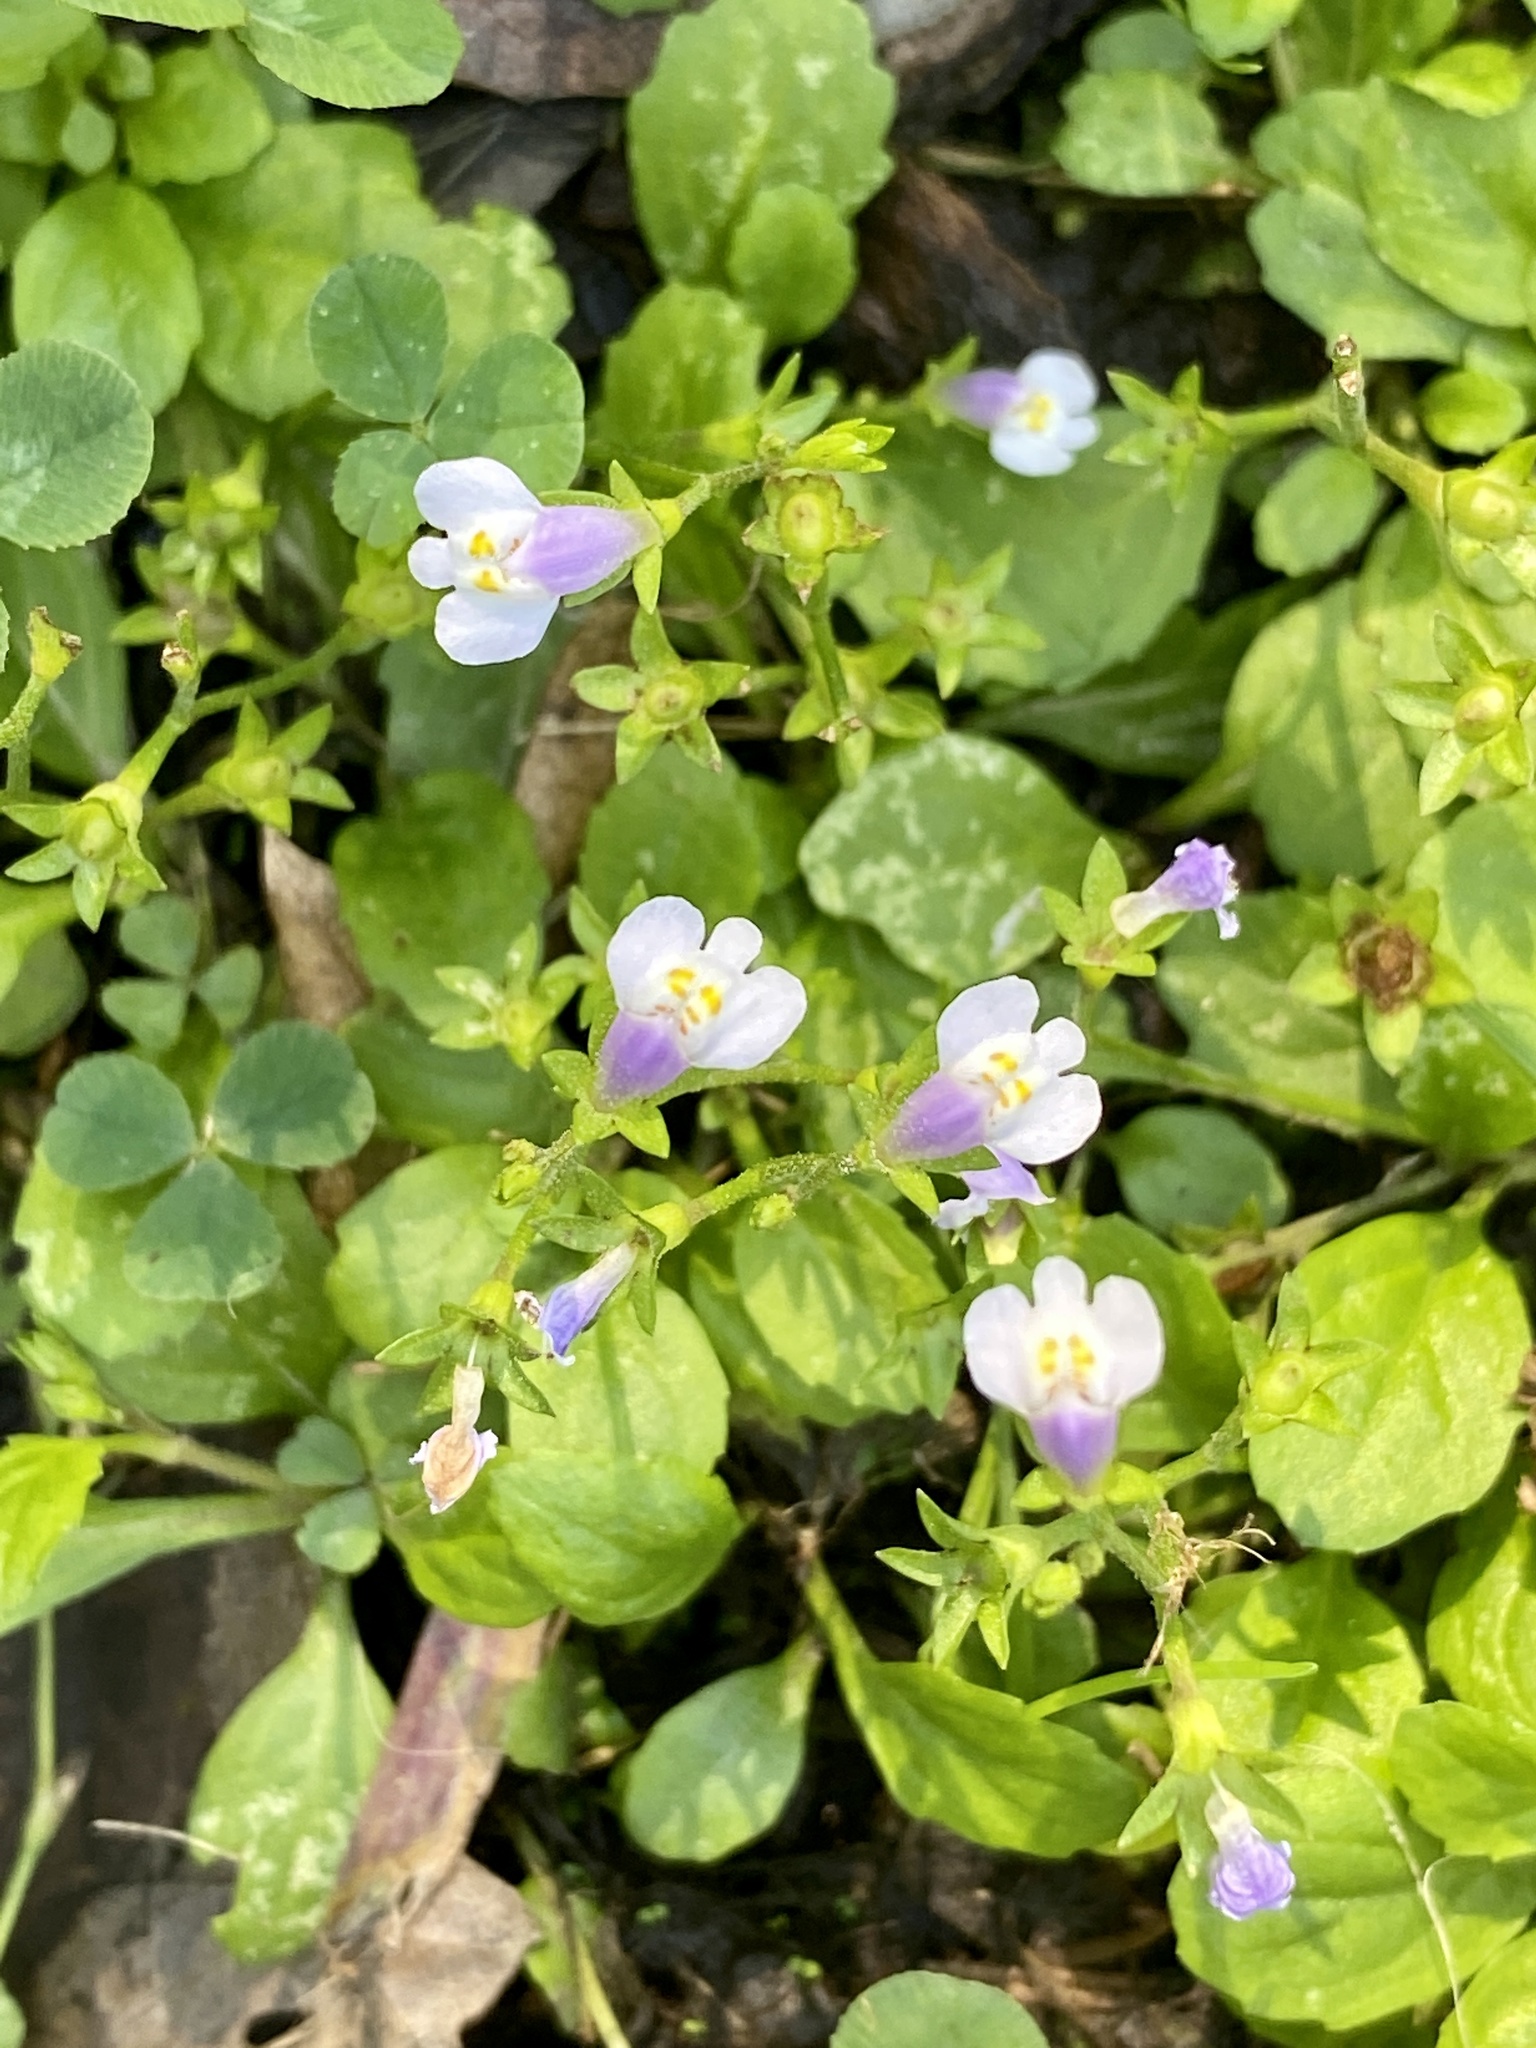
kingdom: Plantae
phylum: Tracheophyta
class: Magnoliopsida
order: Lamiales
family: Mazaceae
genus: Mazus
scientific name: Mazus pumilus
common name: Japanese mazus
